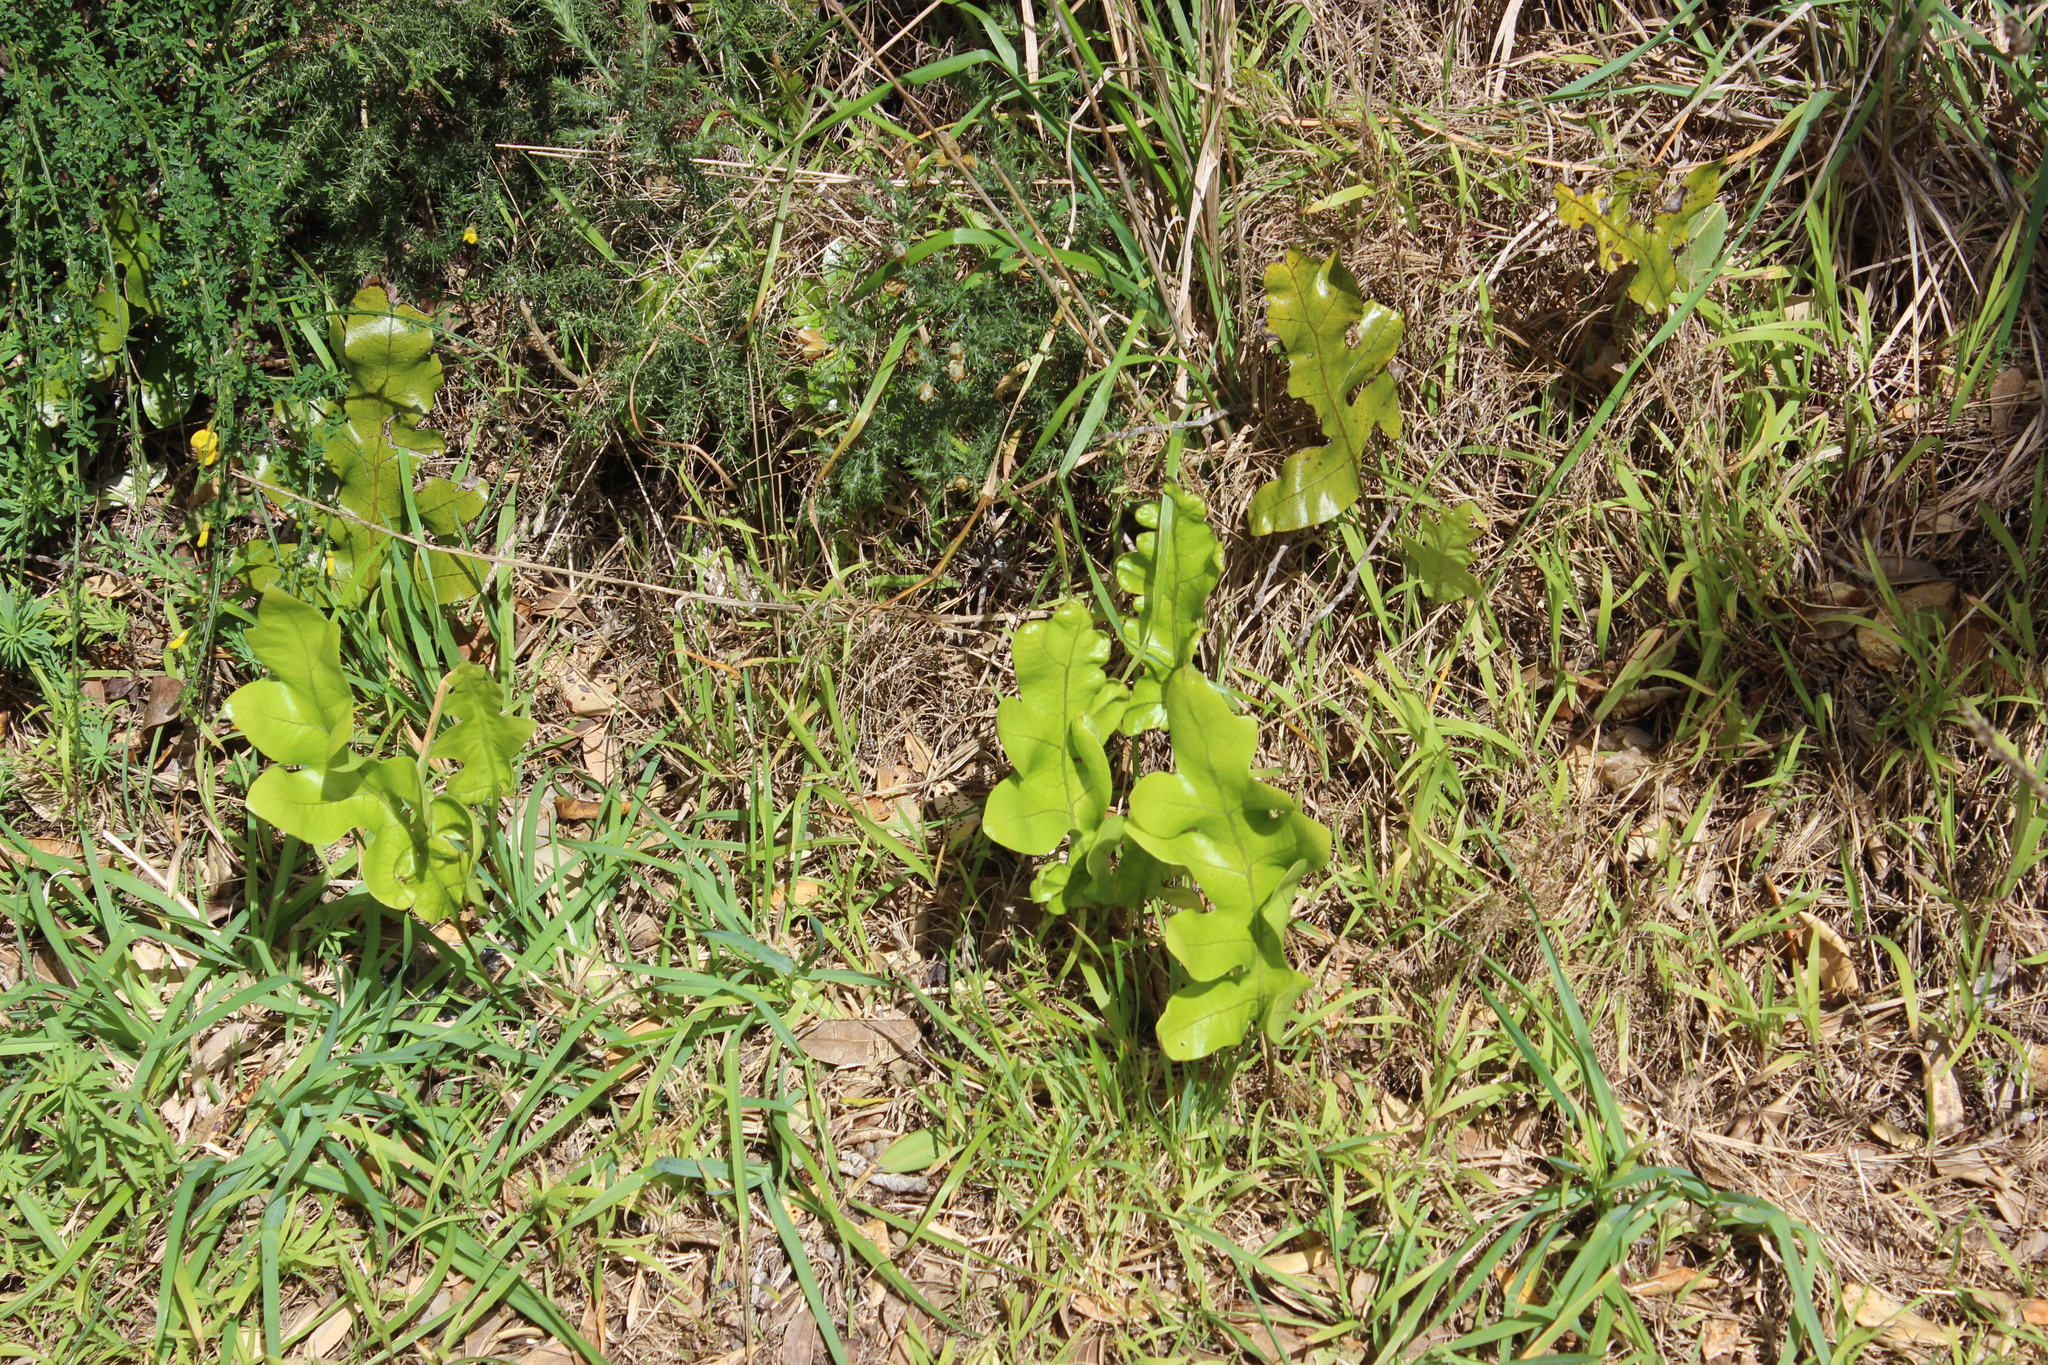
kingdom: Plantae
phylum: Tracheophyta
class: Polypodiopsida
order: Polypodiales
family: Polypodiaceae
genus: Lecanopteris
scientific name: Lecanopteris pustulata
